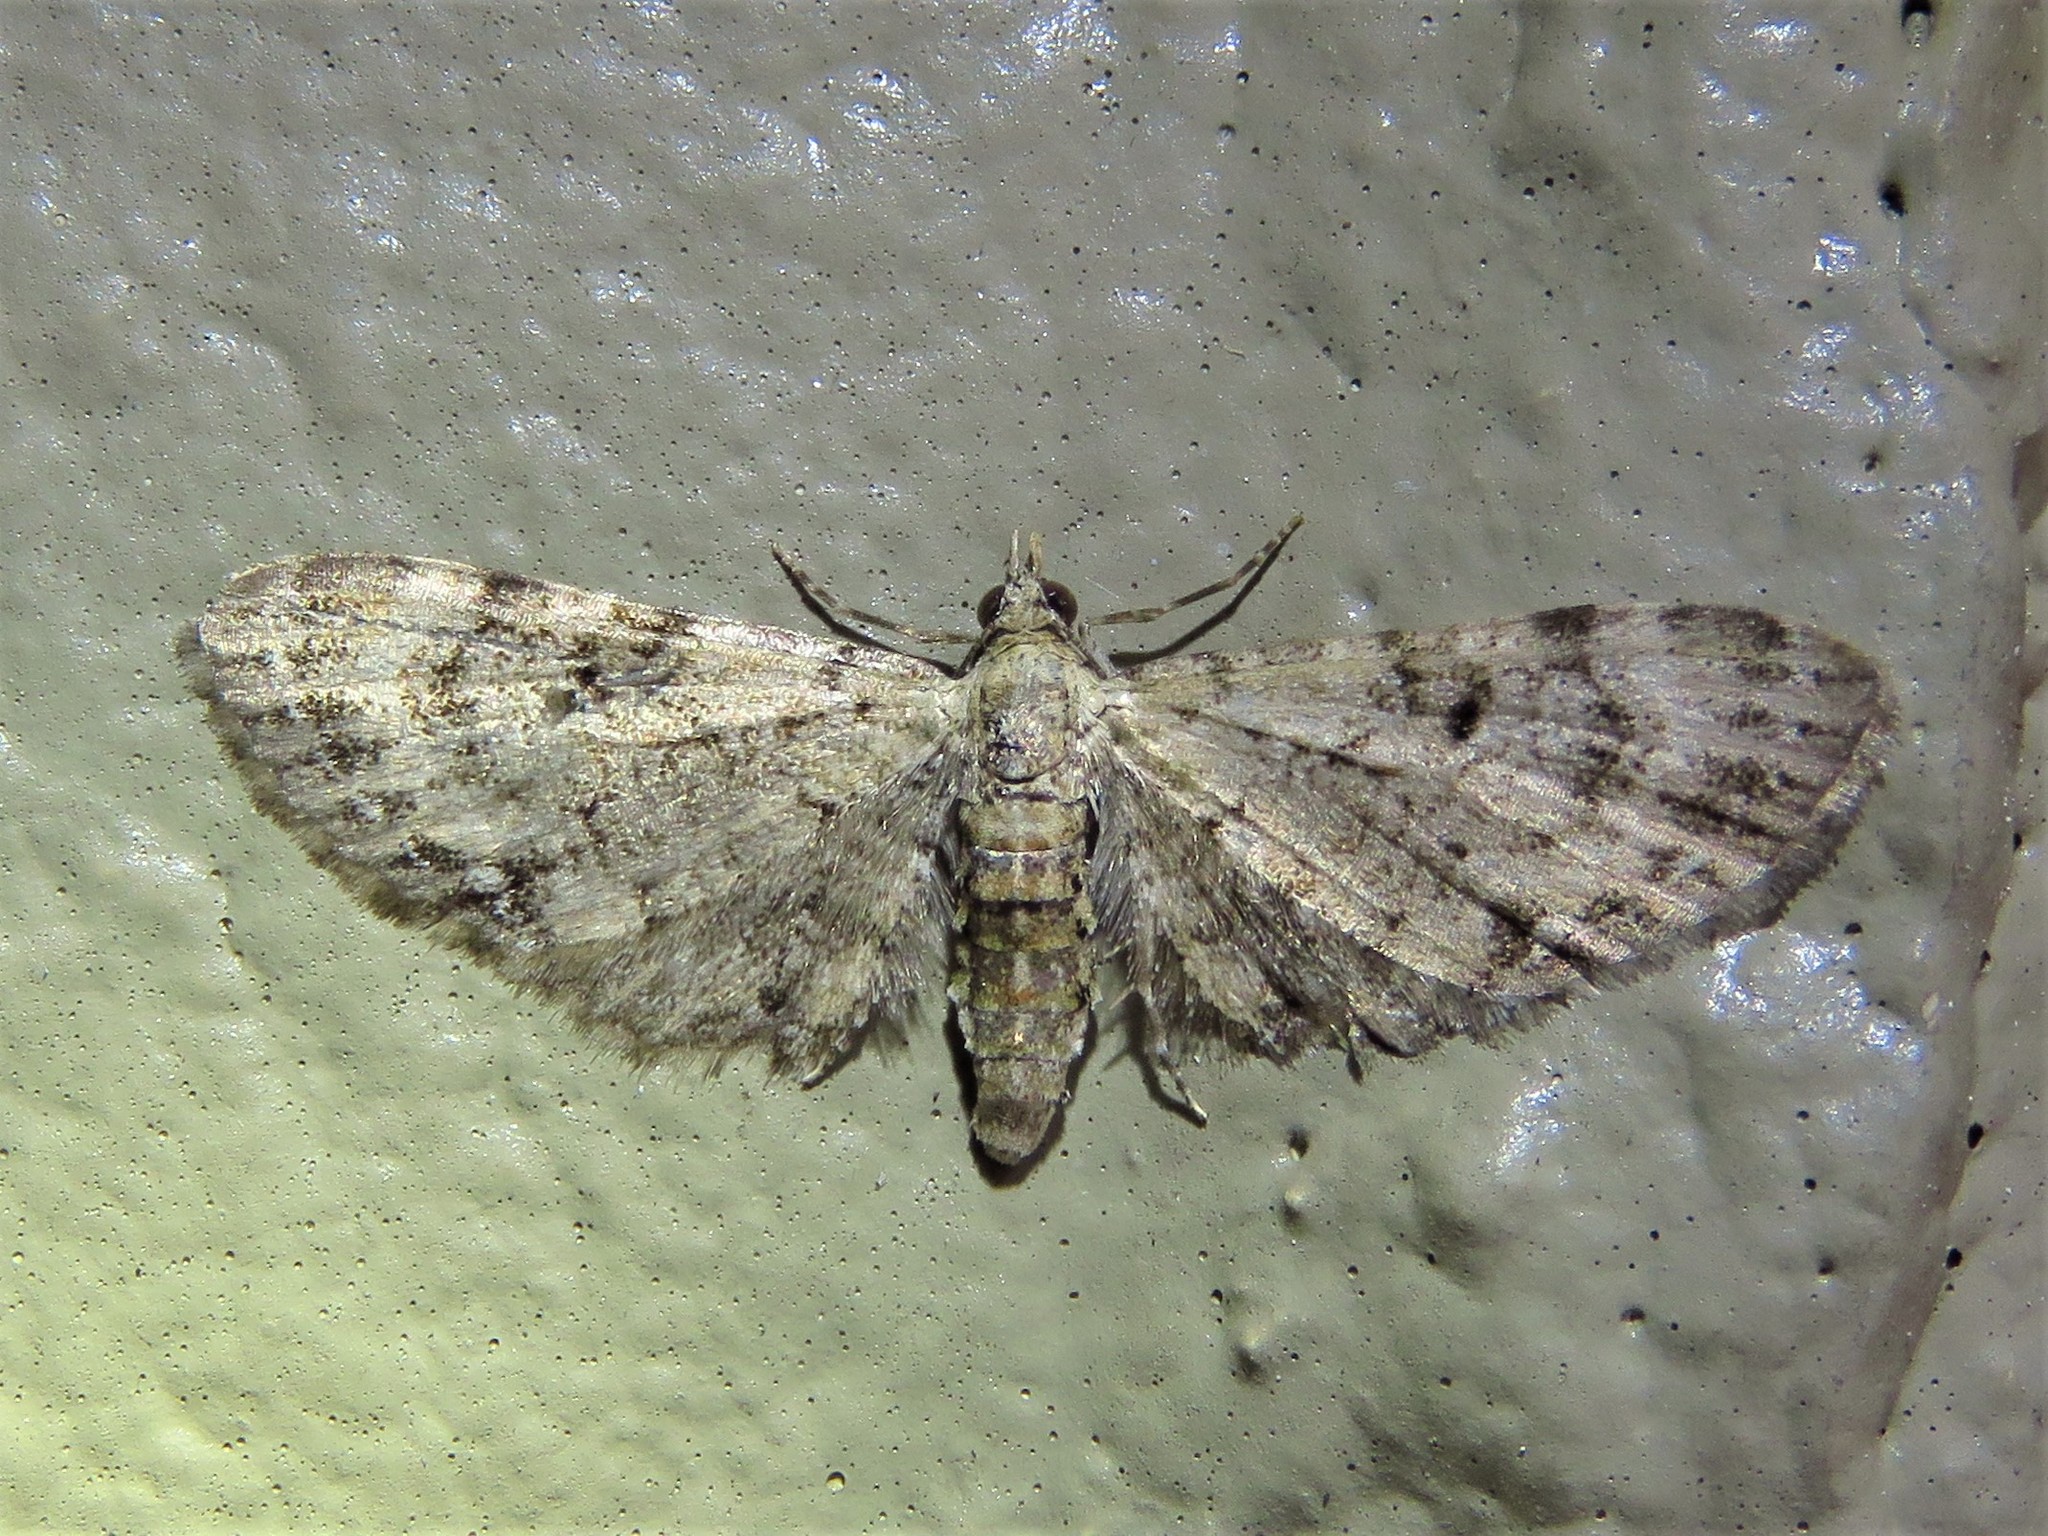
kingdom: Animalia
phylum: Arthropoda
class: Insecta
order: Lepidoptera
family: Geometridae
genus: Eupithecia
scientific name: Eupithecia miserulata
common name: Common eupithecia
